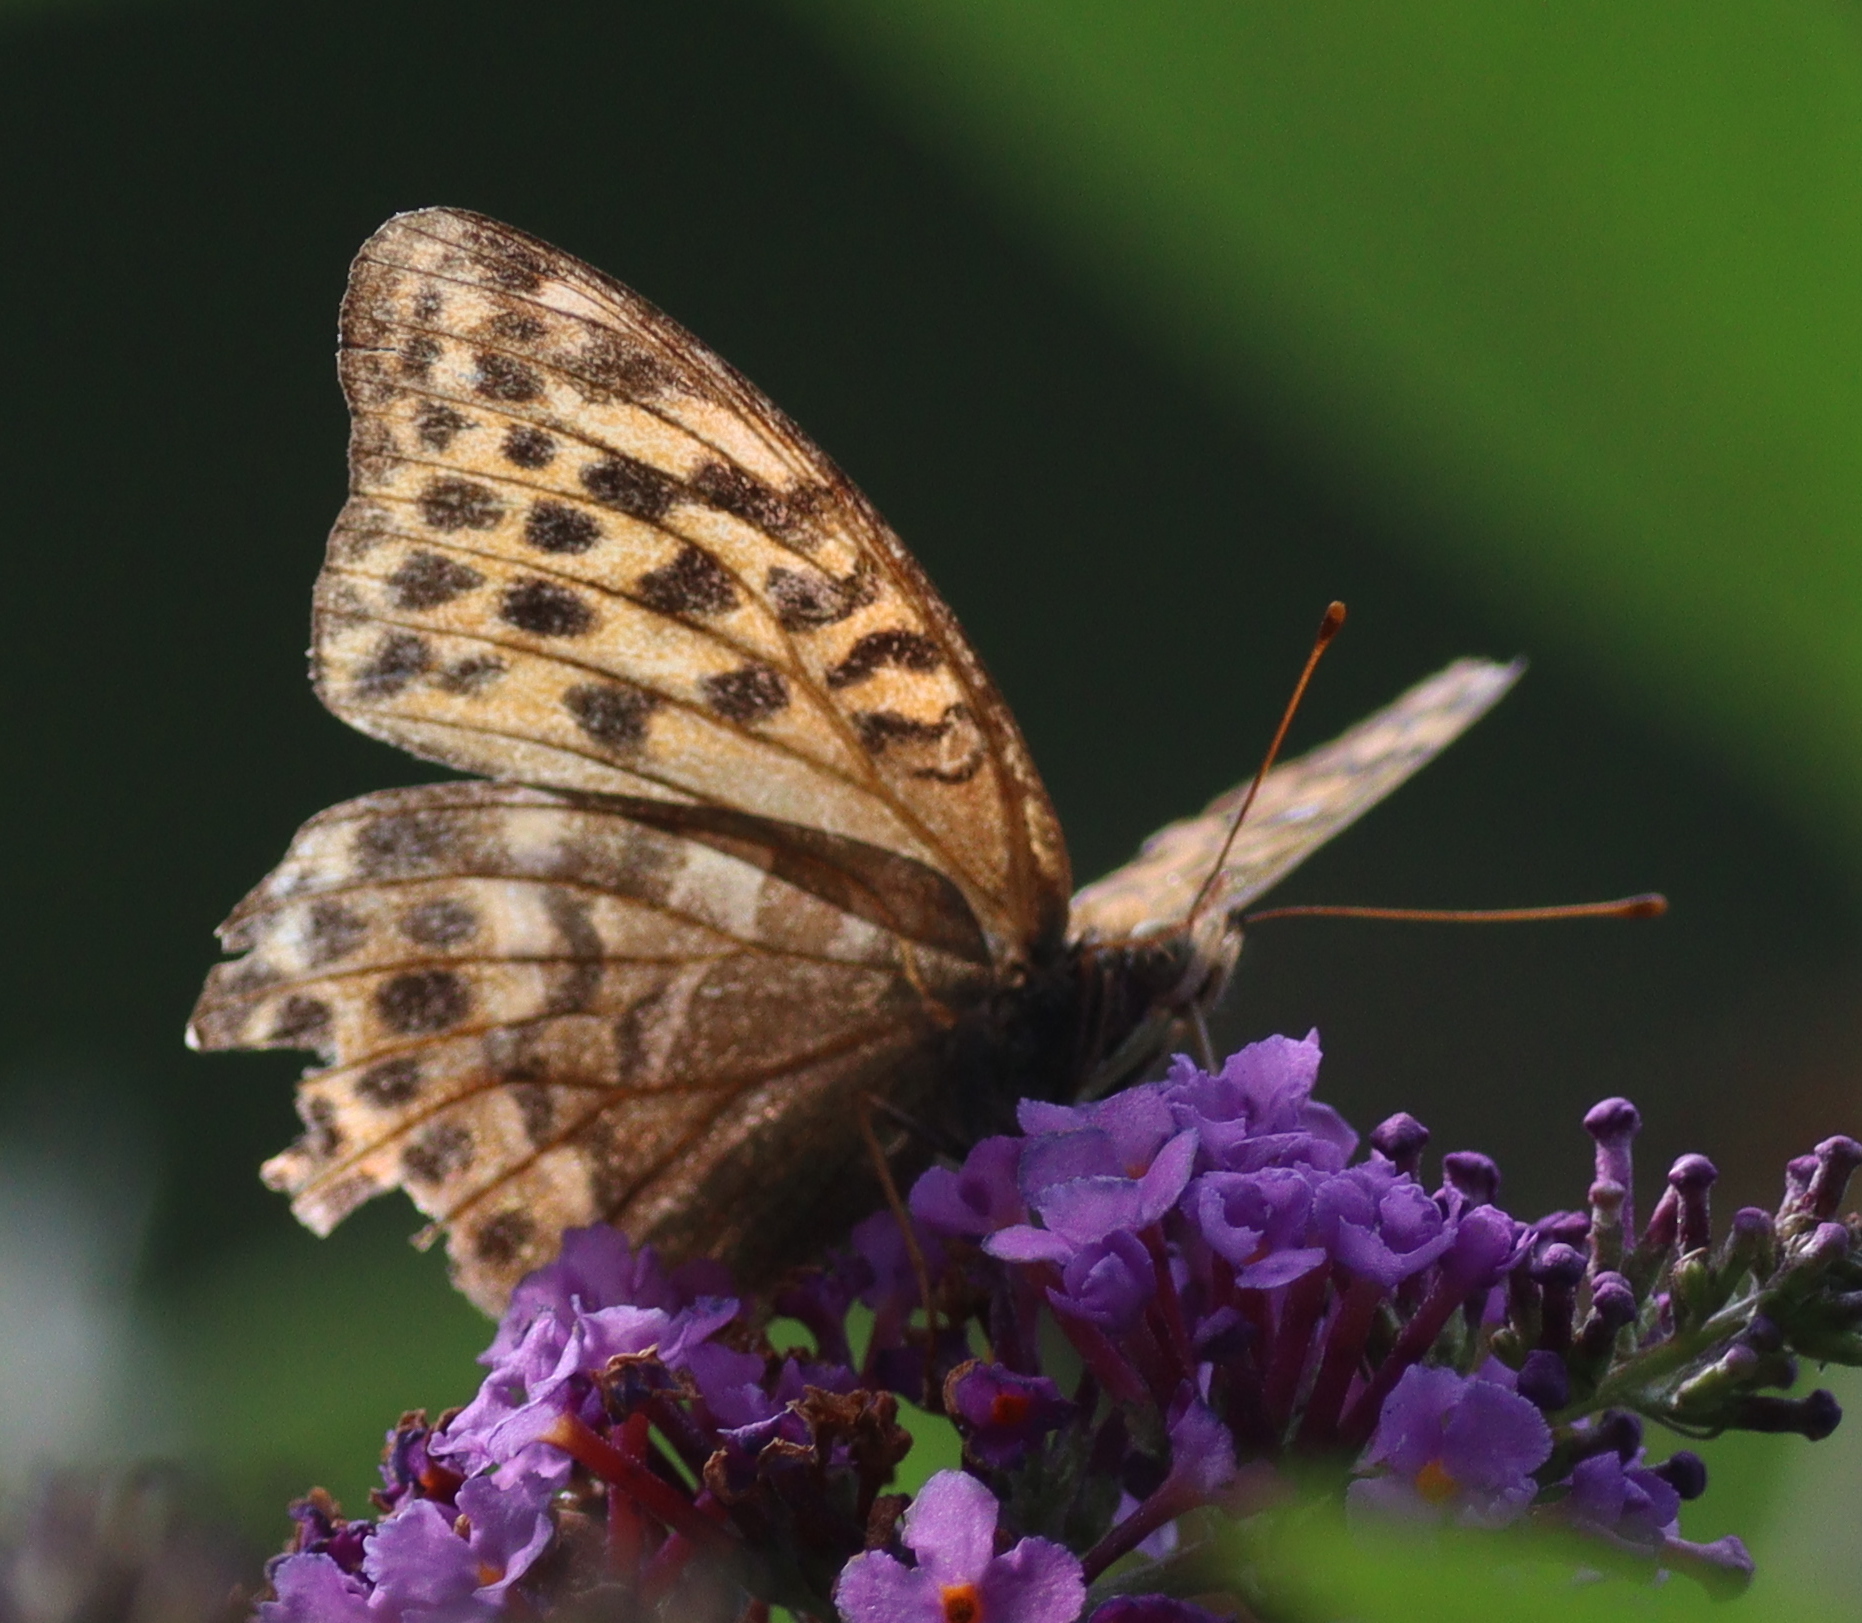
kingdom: Animalia
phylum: Arthropoda
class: Insecta
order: Lepidoptera
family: Nymphalidae
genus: Argynnis
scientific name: Argynnis paphia
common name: Silver-washed fritillary
